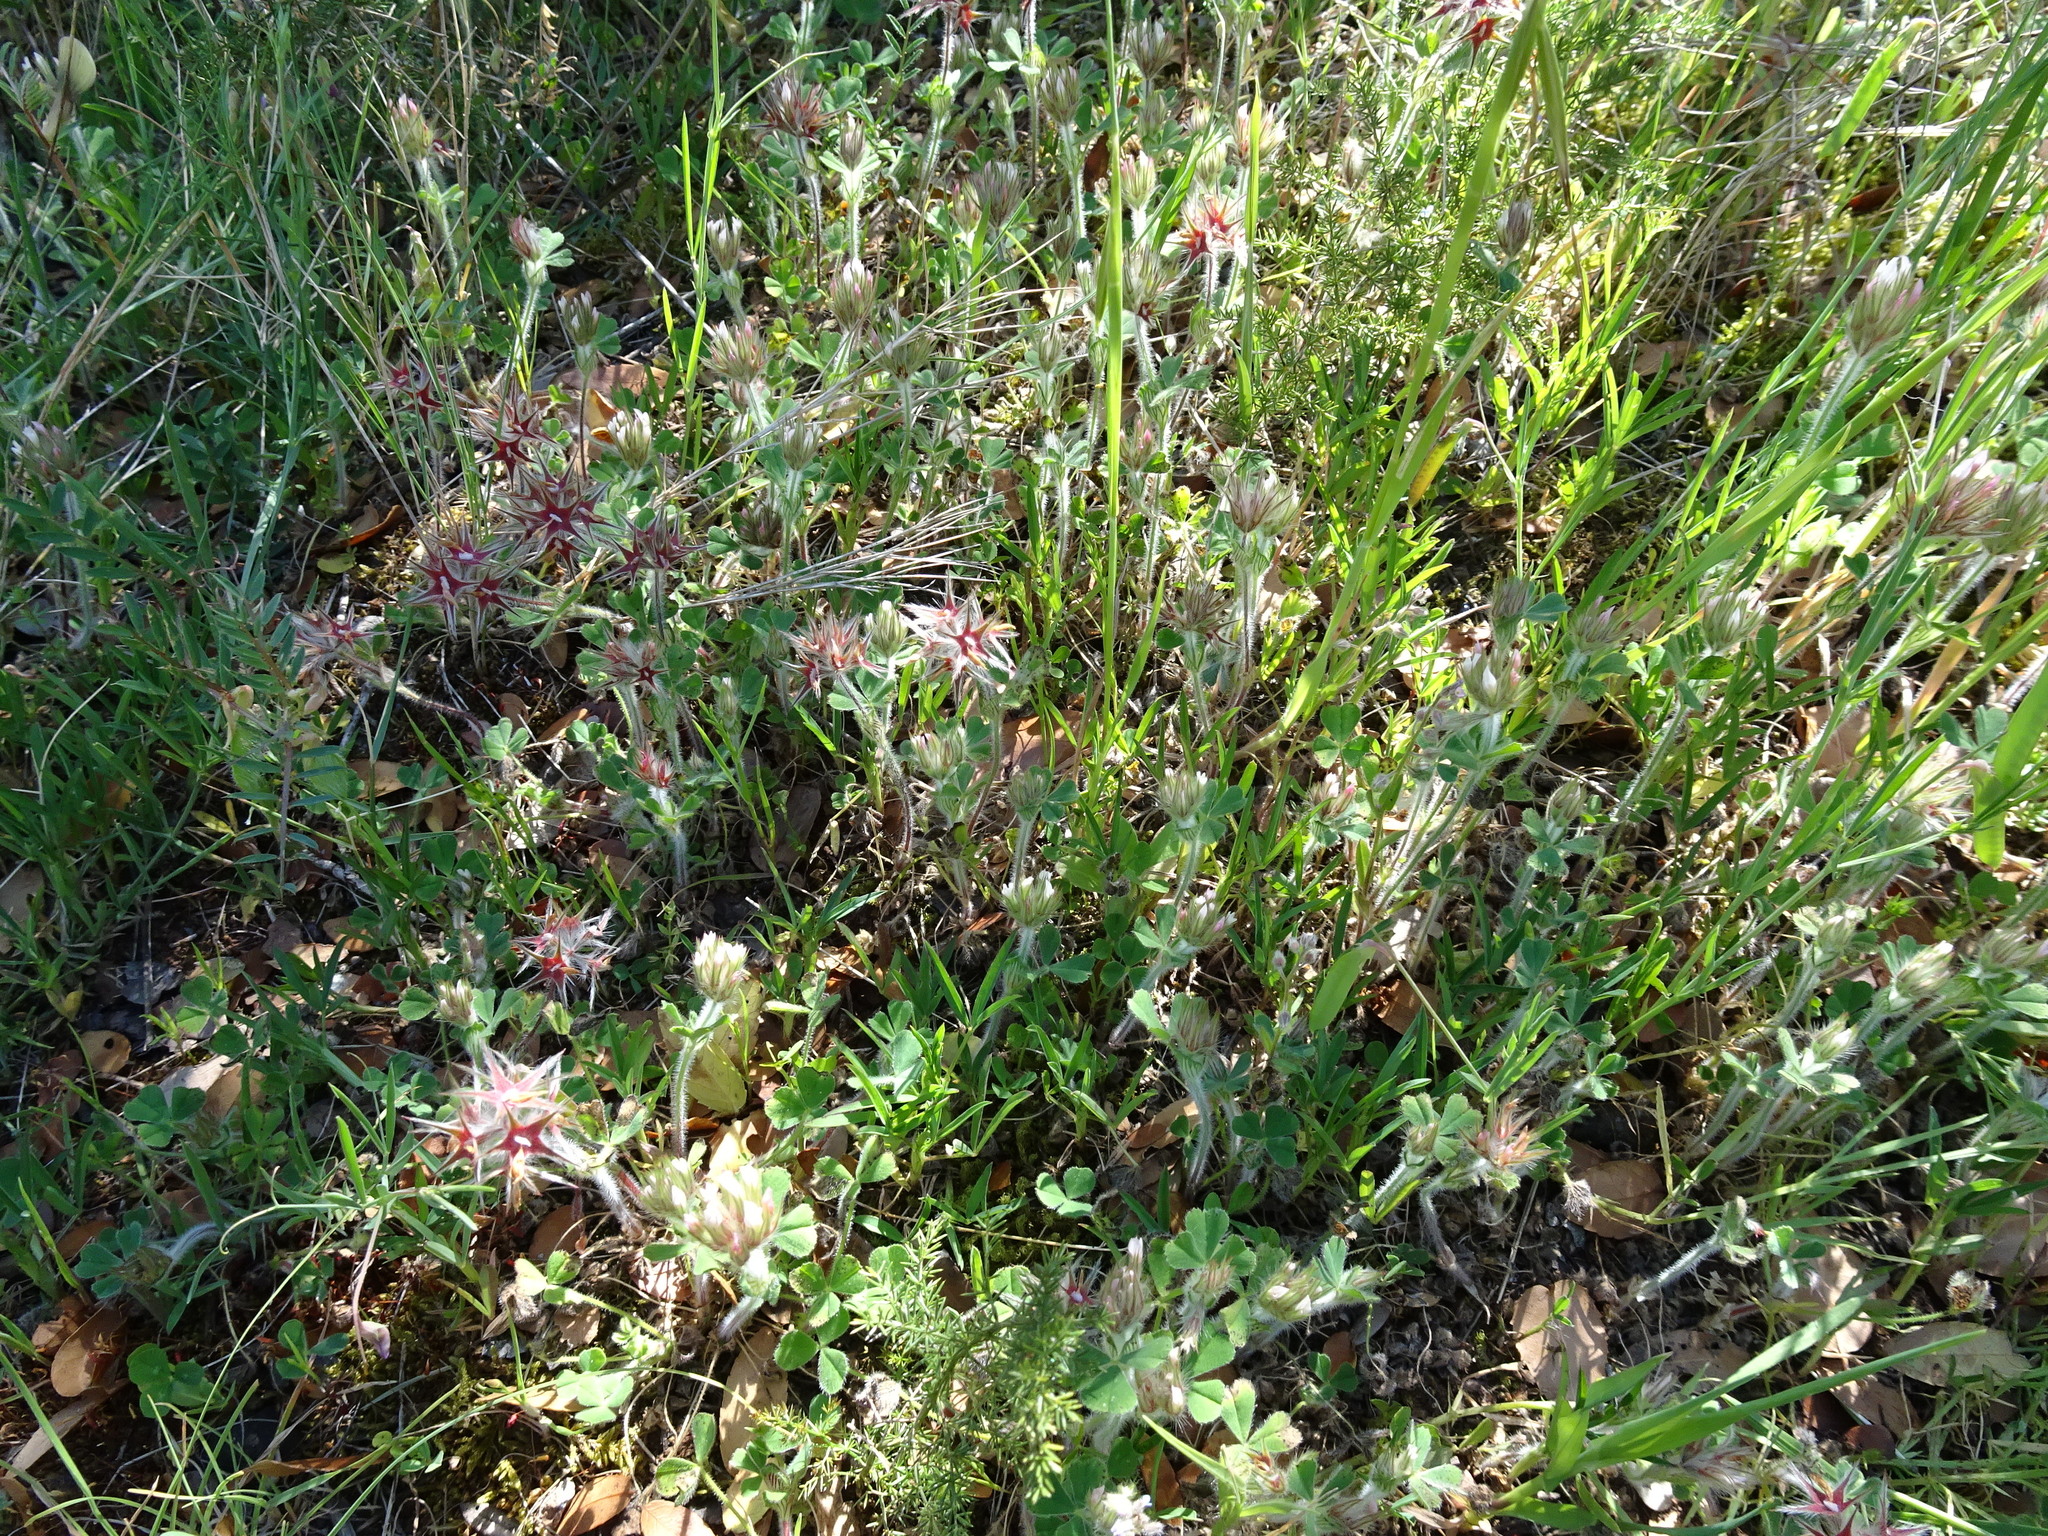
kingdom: Plantae
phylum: Tracheophyta
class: Magnoliopsida
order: Fabales
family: Fabaceae
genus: Trifolium
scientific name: Trifolium stellatum
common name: Starry clover
